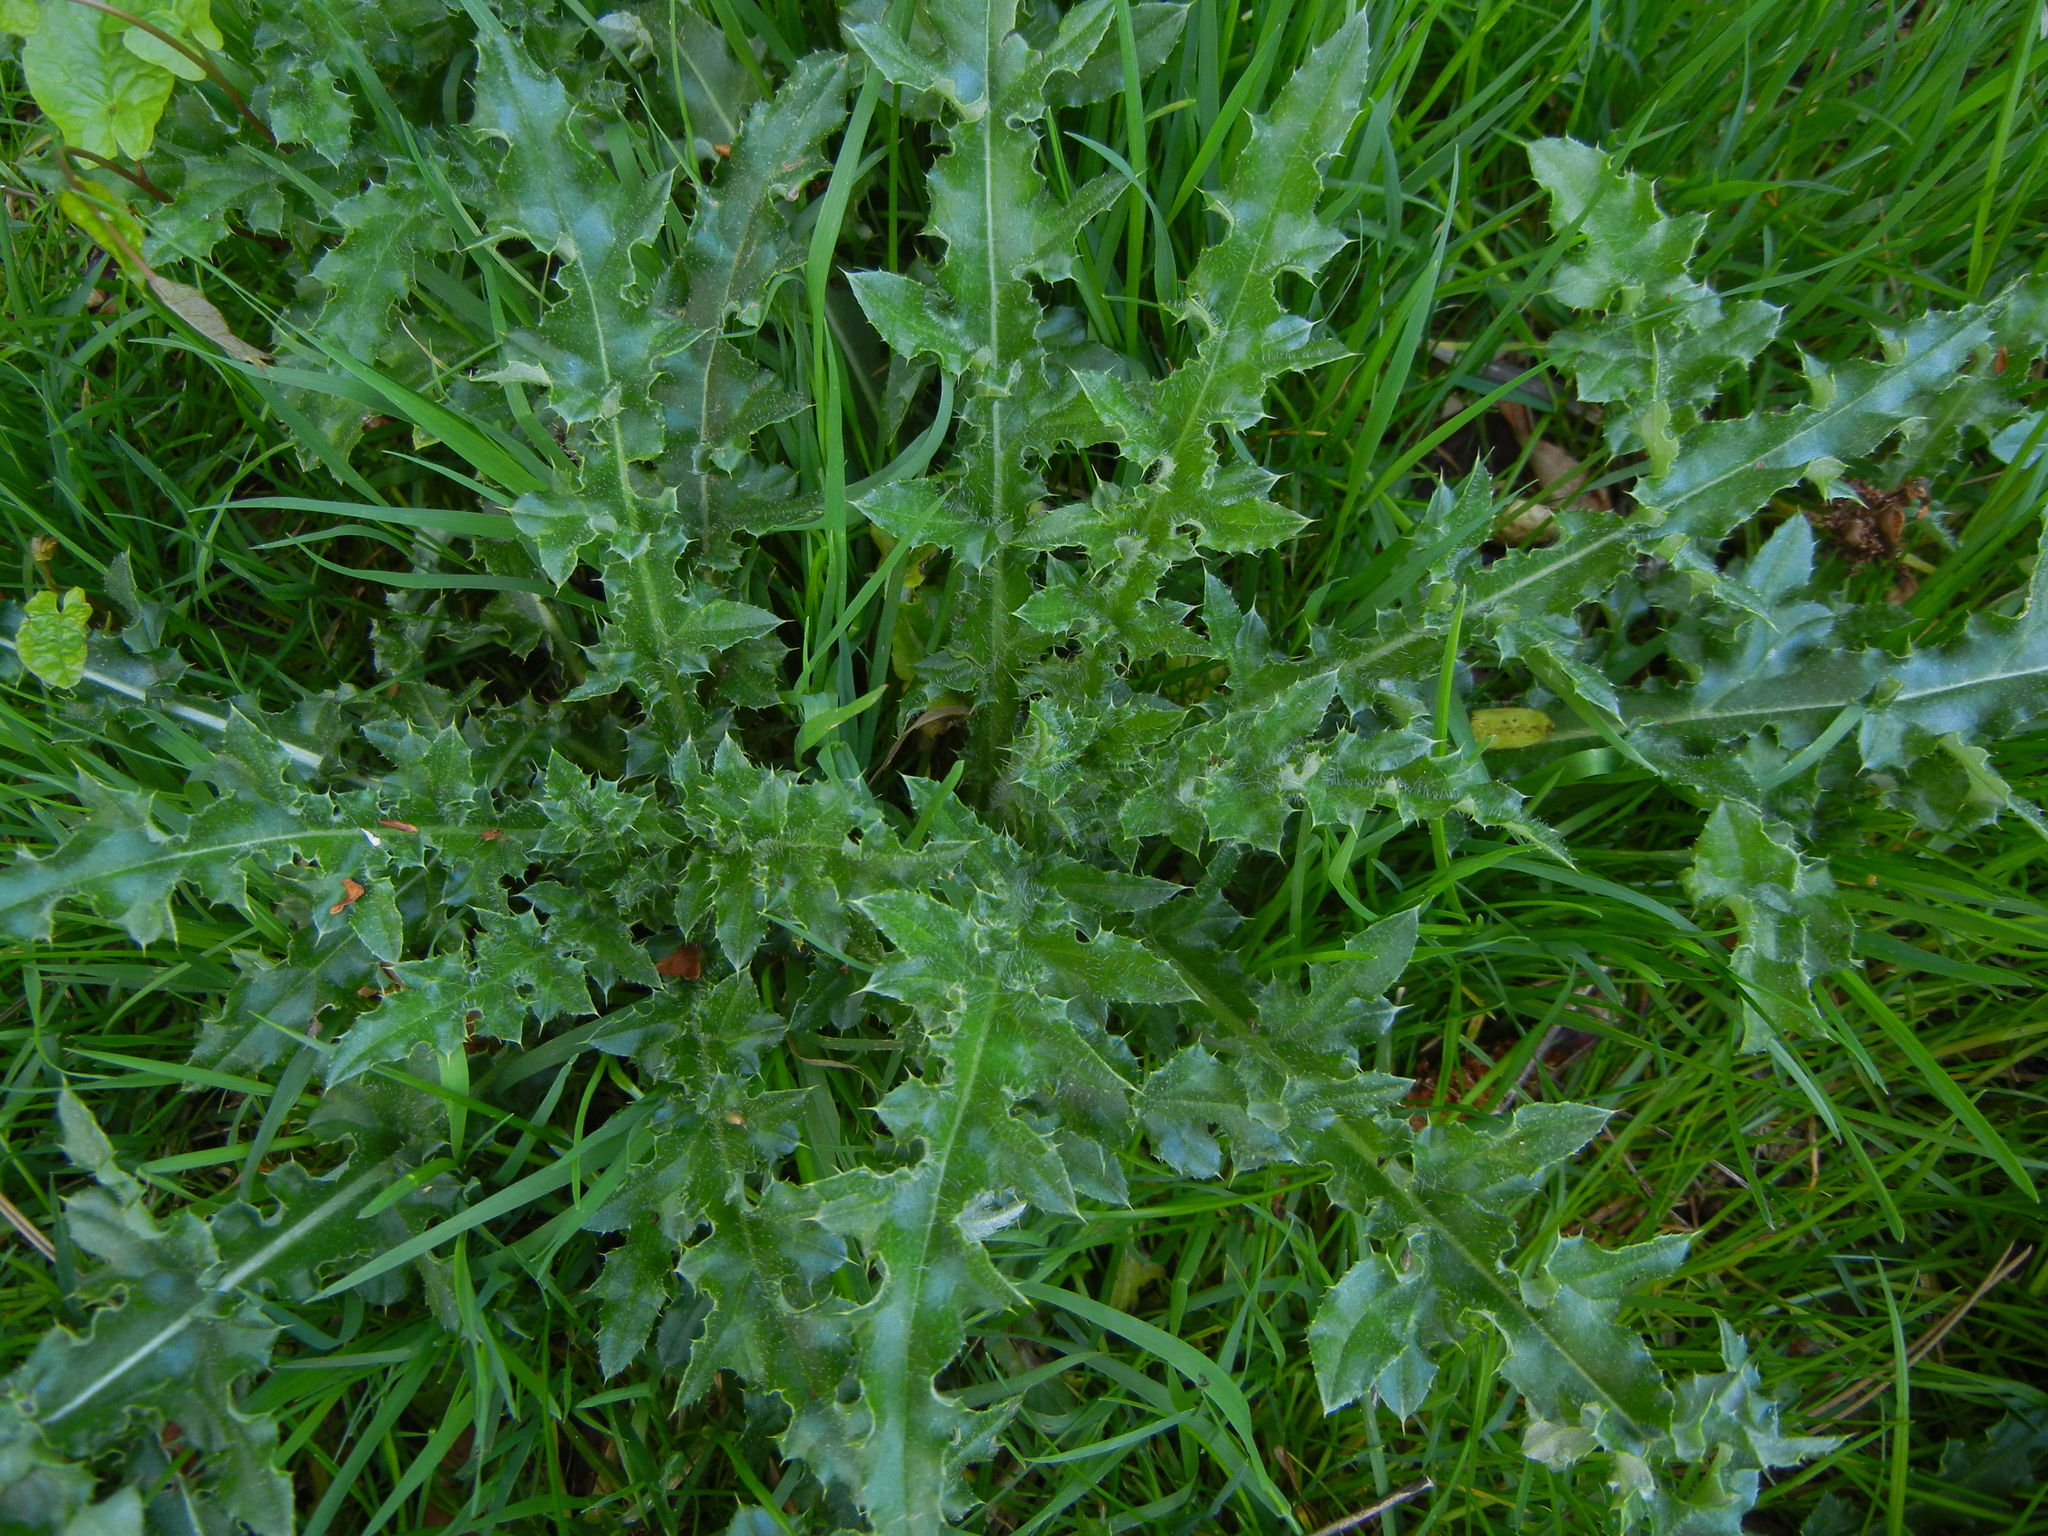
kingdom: Plantae
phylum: Tracheophyta
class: Magnoliopsida
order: Asterales
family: Asteraceae
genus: Cirsium
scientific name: Cirsium arvense
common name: Creeping thistle
